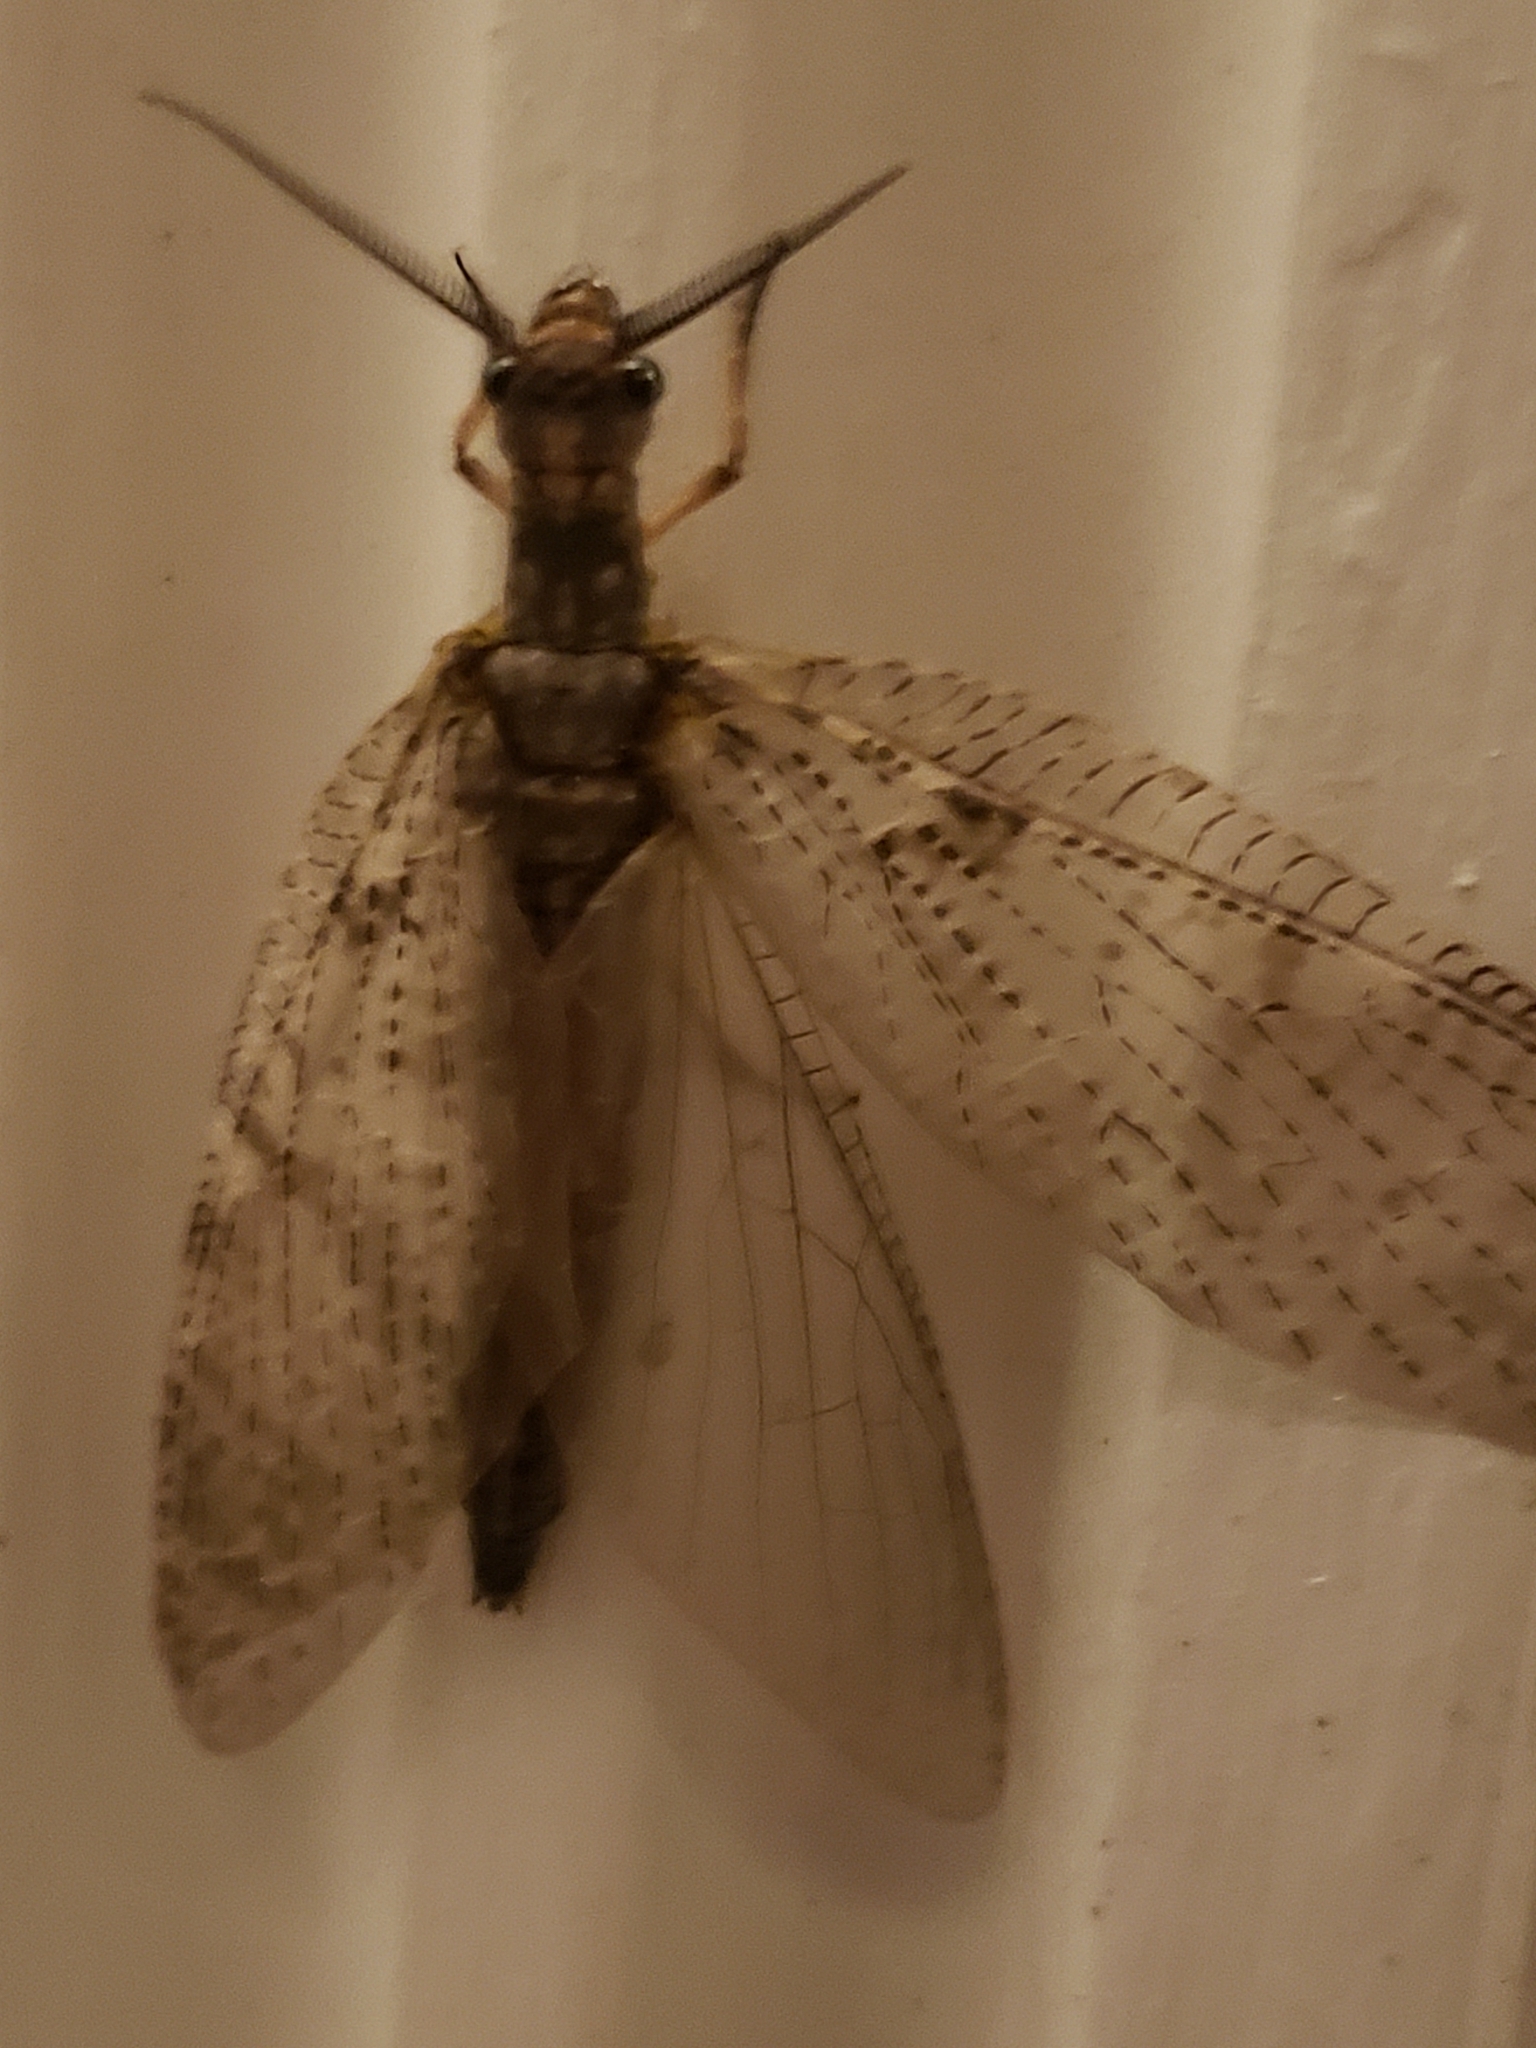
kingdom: Animalia
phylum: Arthropoda
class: Insecta
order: Megaloptera
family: Corydalidae
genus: Chauliodes
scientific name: Chauliodes pectinicornis
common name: Summer fishfly
